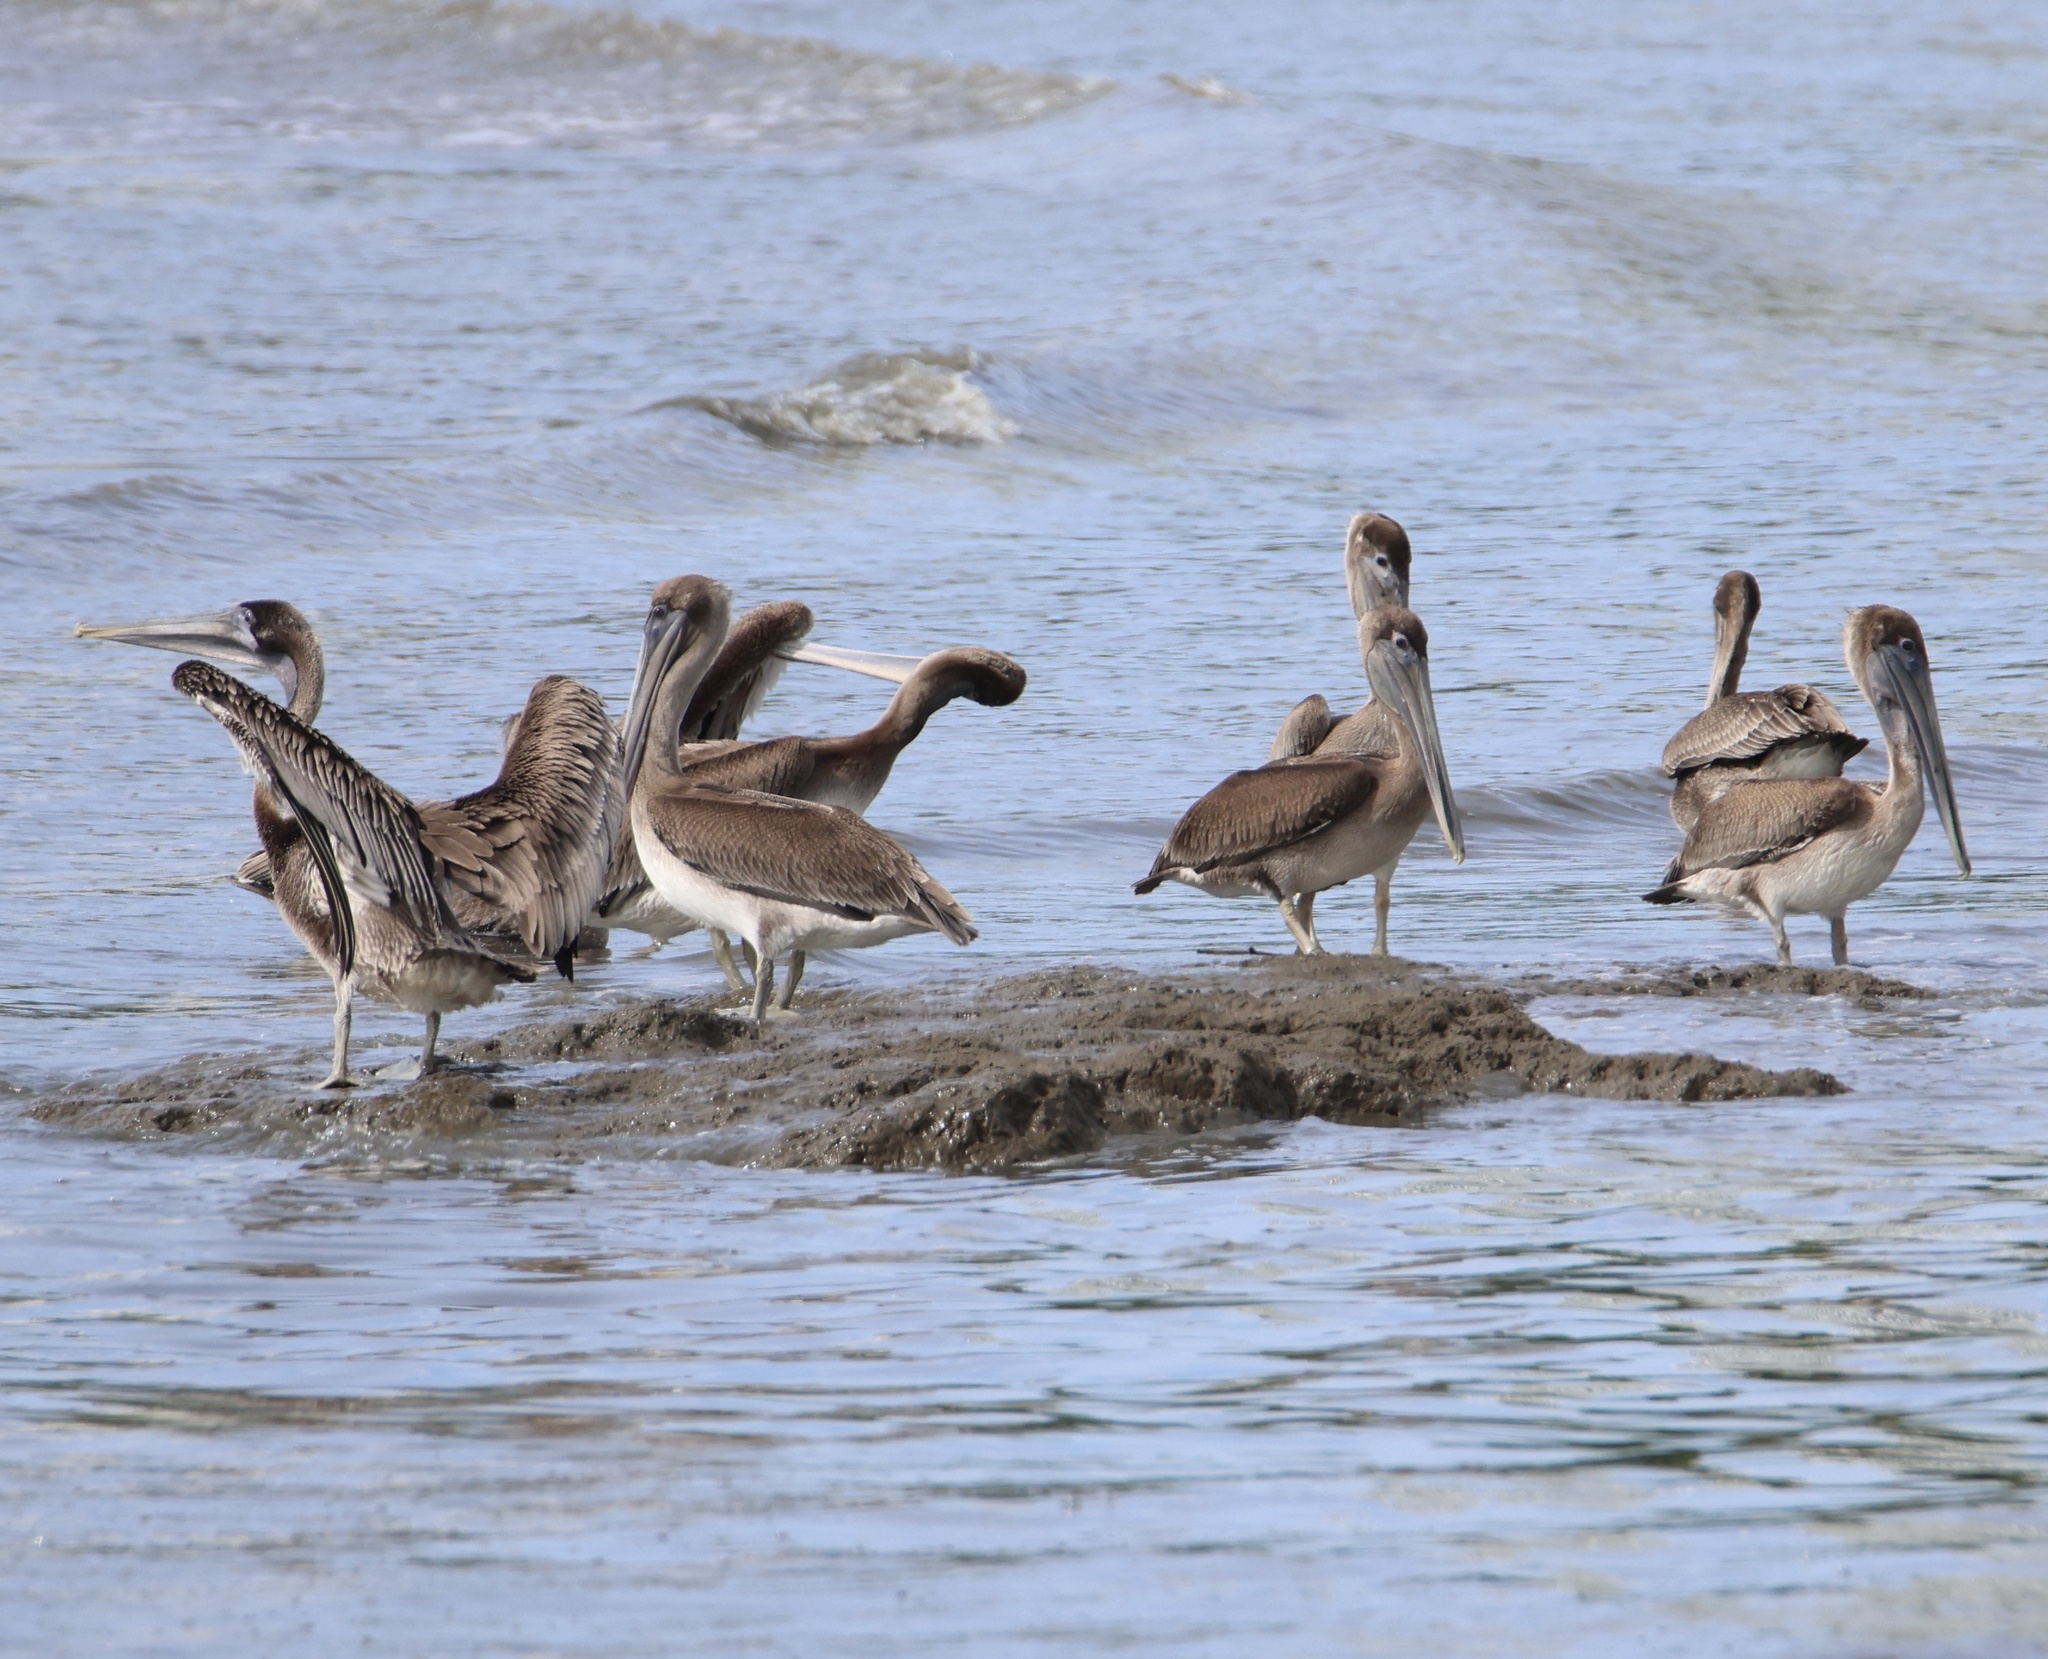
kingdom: Animalia
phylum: Chordata
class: Aves
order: Pelecaniformes
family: Pelecanidae
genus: Pelecanus
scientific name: Pelecanus occidentalis
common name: Brown pelican
